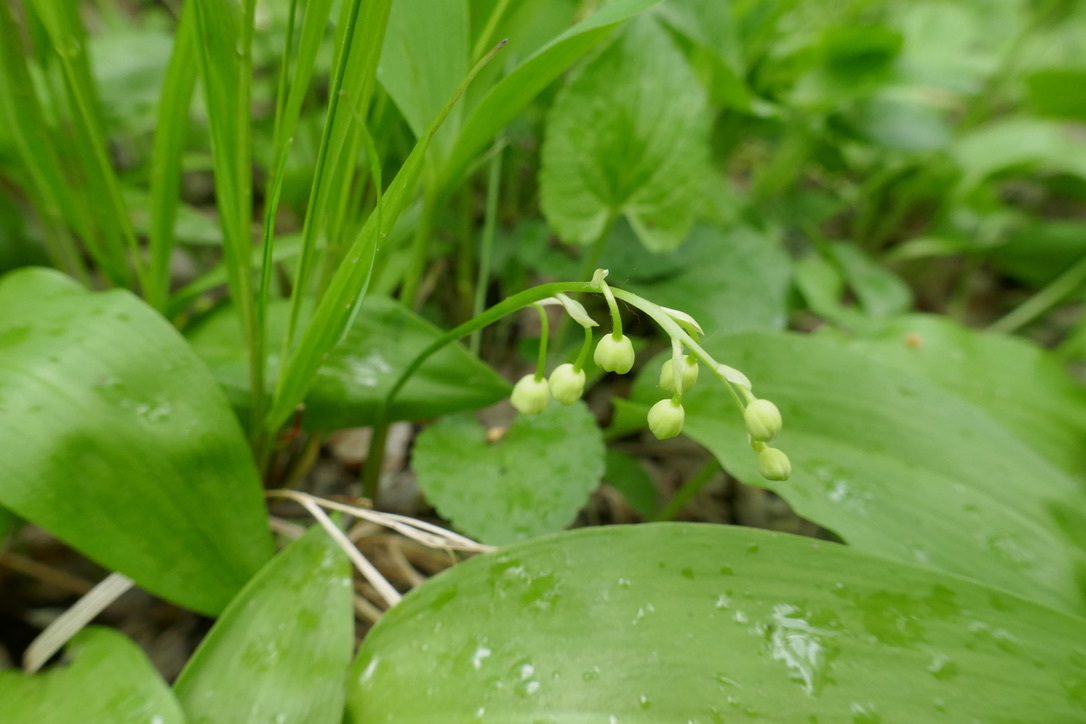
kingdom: Plantae
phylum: Tracheophyta
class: Liliopsida
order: Asparagales
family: Asparagaceae
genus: Convallaria
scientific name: Convallaria majalis
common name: Lily-of-the-valley
